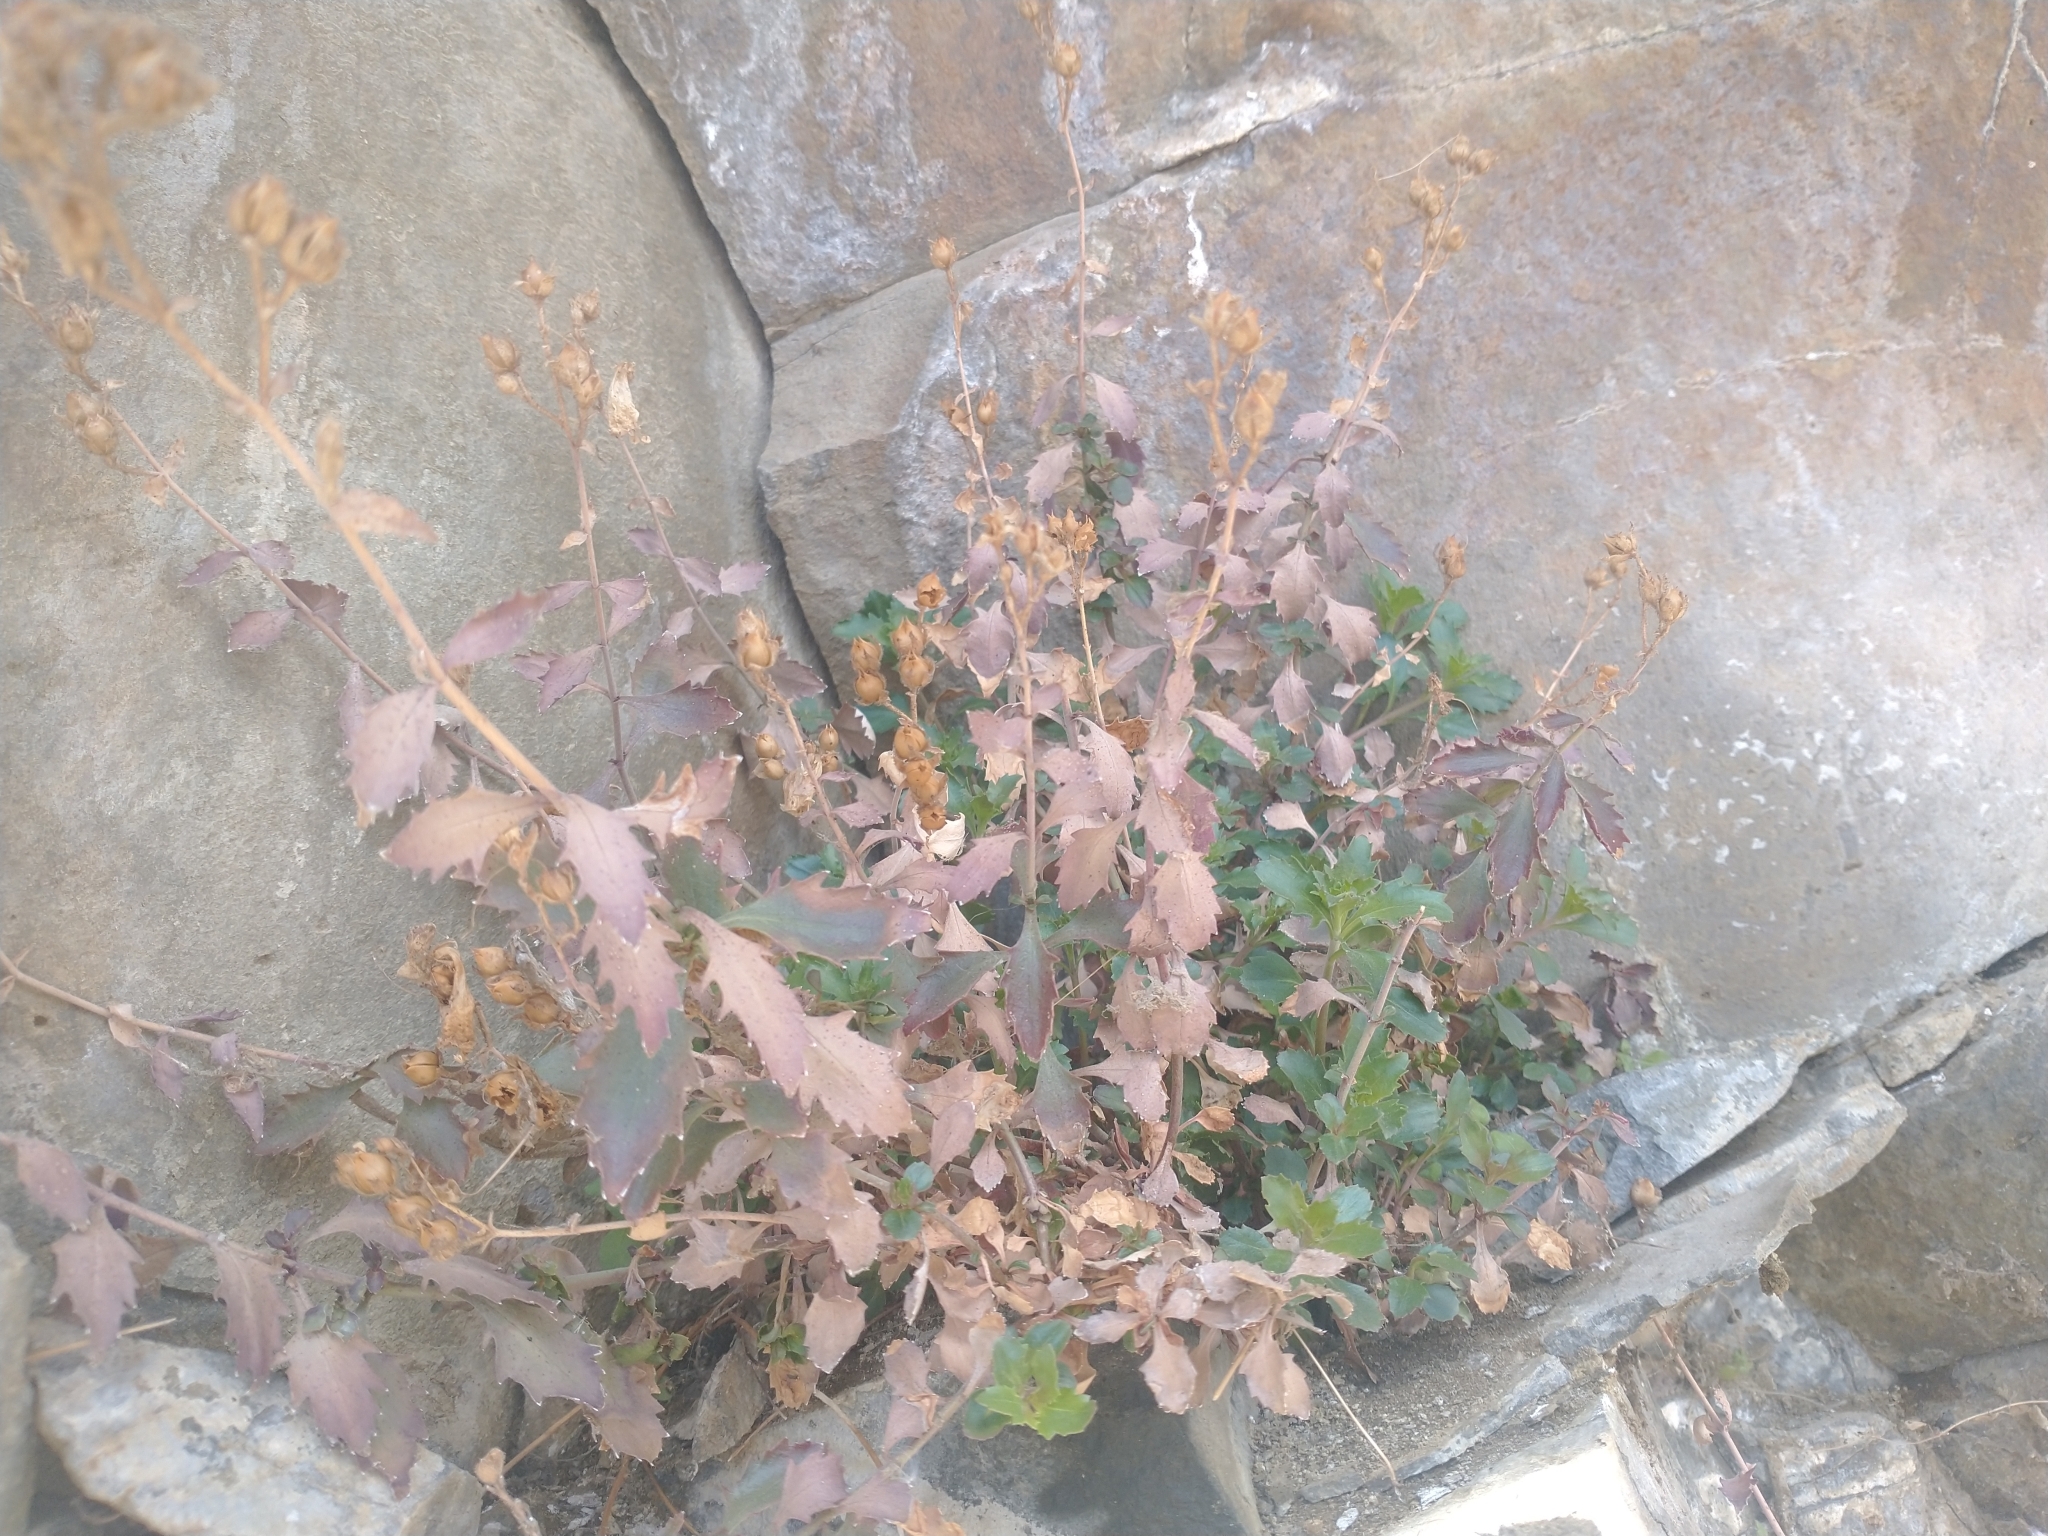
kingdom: Plantae
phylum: Tracheophyta
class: Magnoliopsida
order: Lamiales
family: Plantaginaceae
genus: Penstemon
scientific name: Penstemon richardsonii
